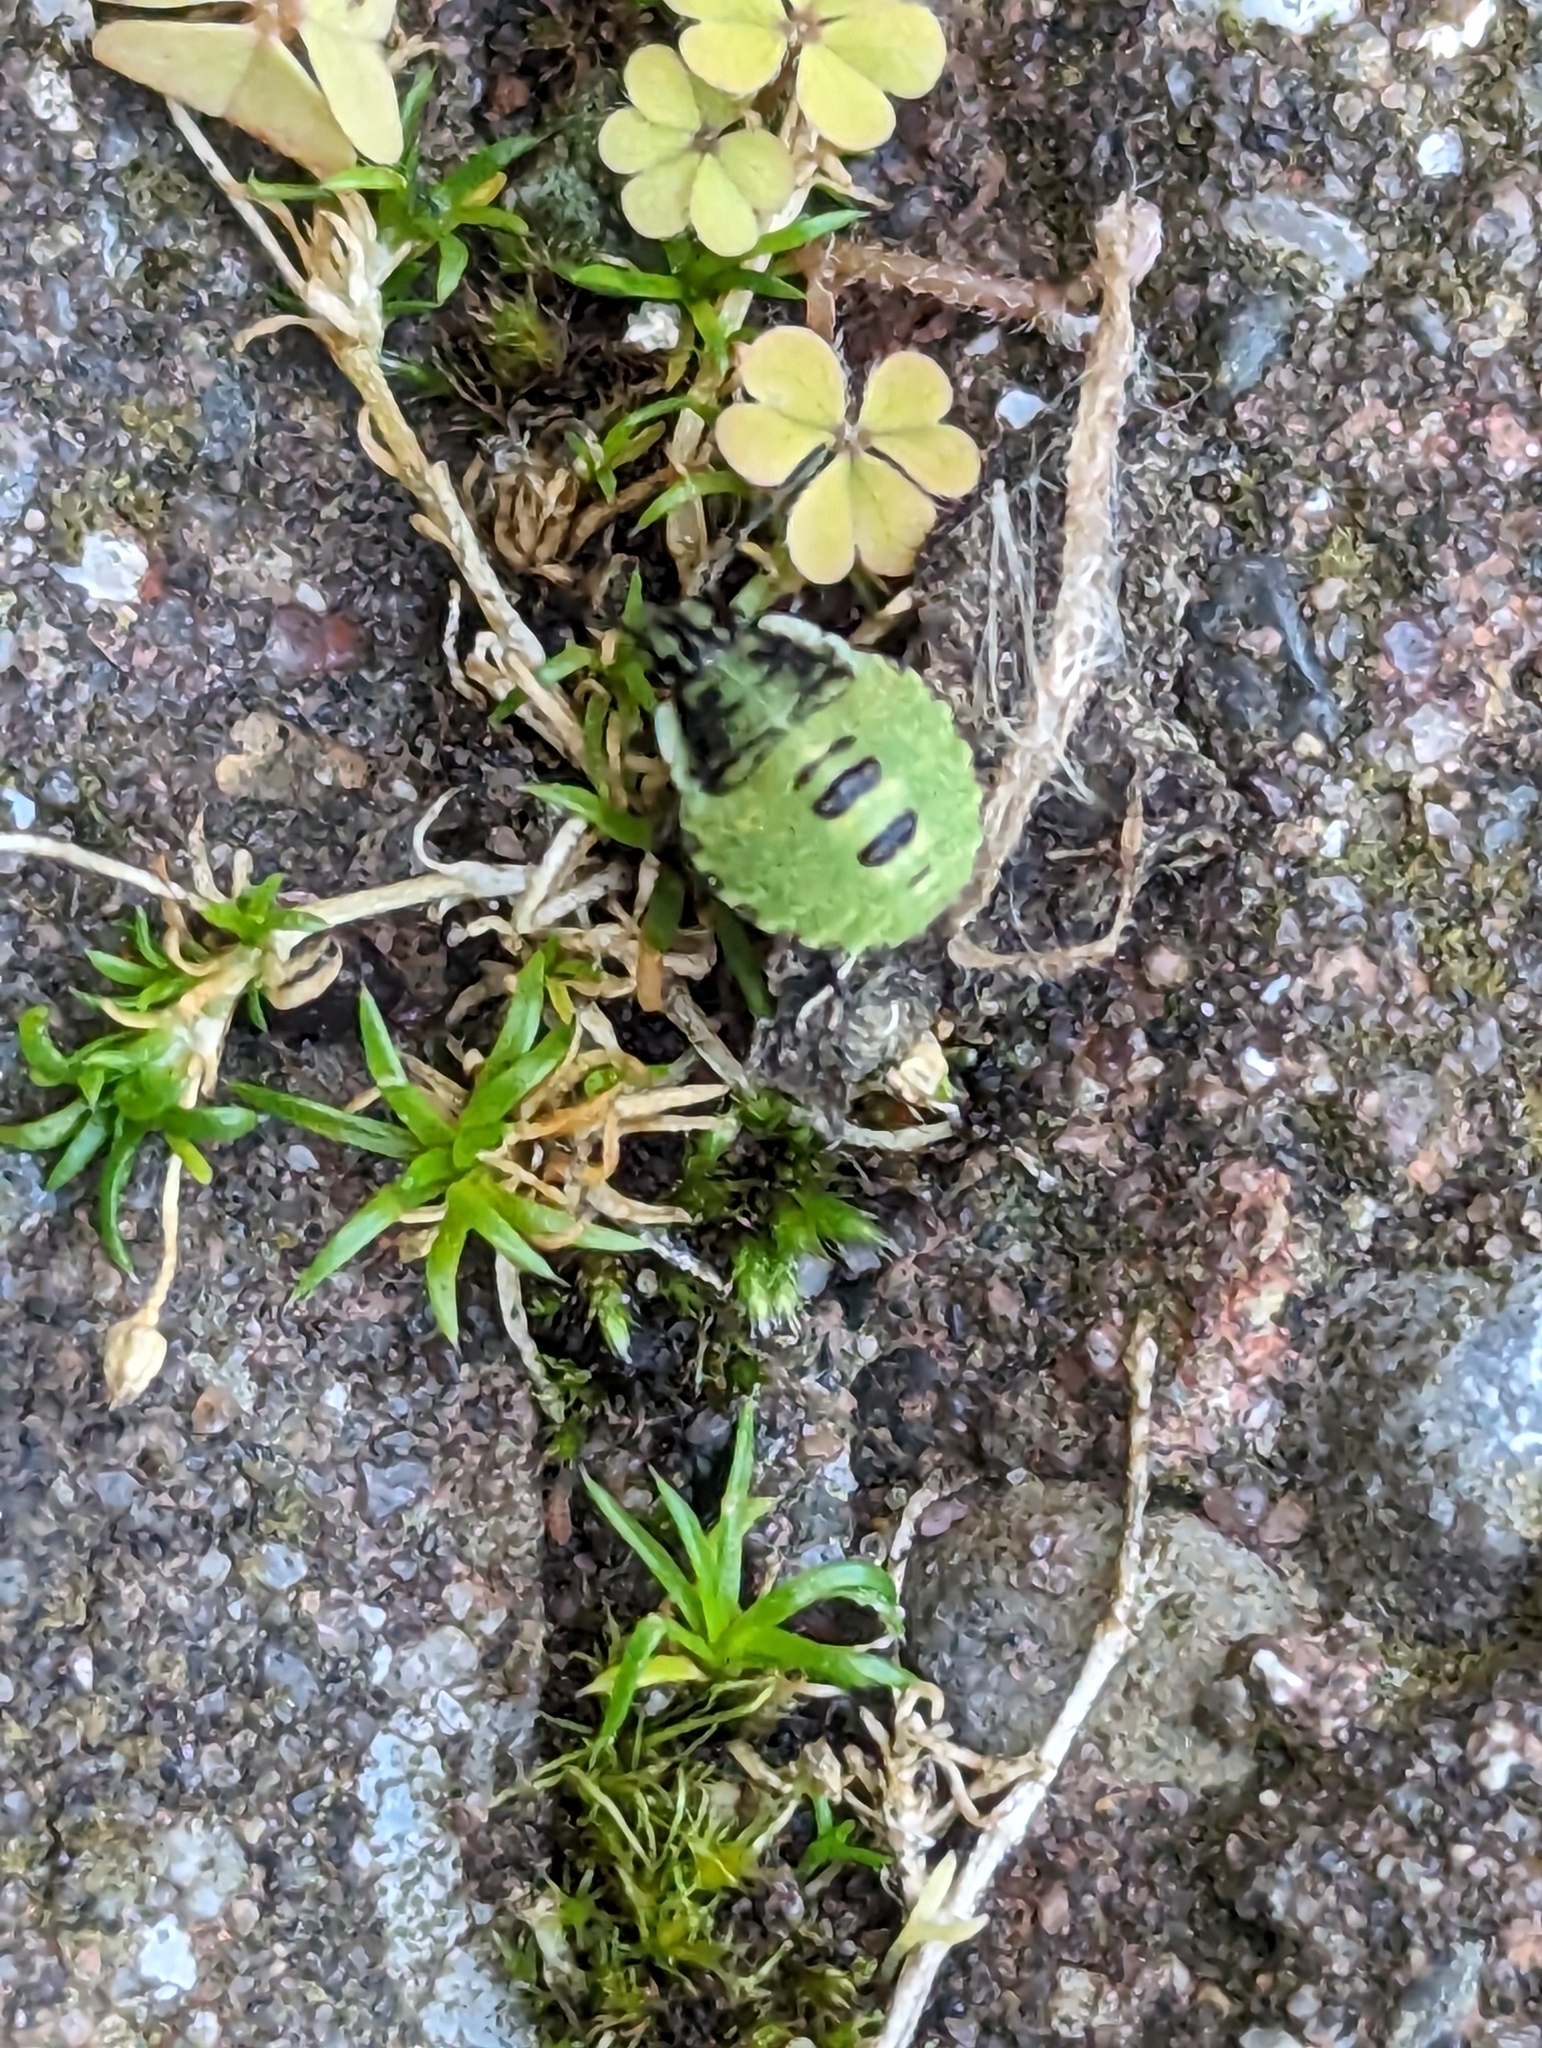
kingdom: Animalia
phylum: Arthropoda
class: Insecta
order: Hemiptera
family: Pentatomidae
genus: Palomena
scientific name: Palomena prasina
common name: Green shieldbug
